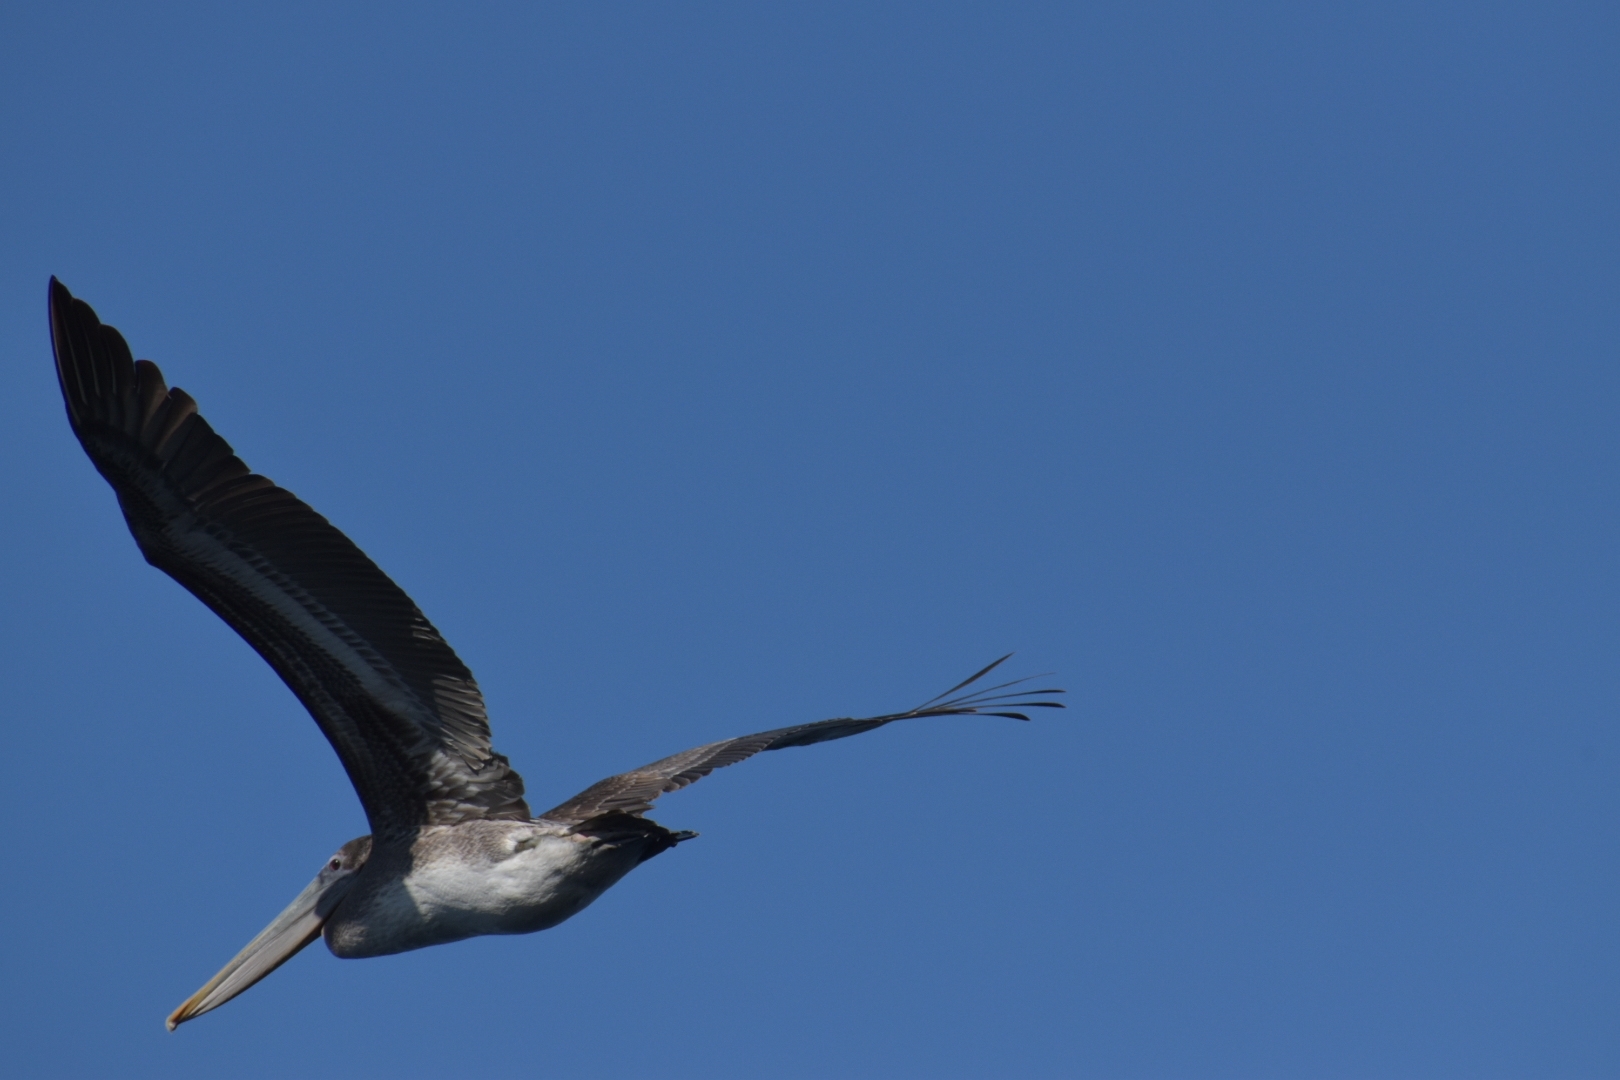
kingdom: Animalia
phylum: Chordata
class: Aves
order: Pelecaniformes
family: Pelecanidae
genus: Pelecanus
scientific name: Pelecanus occidentalis
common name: Brown pelican
